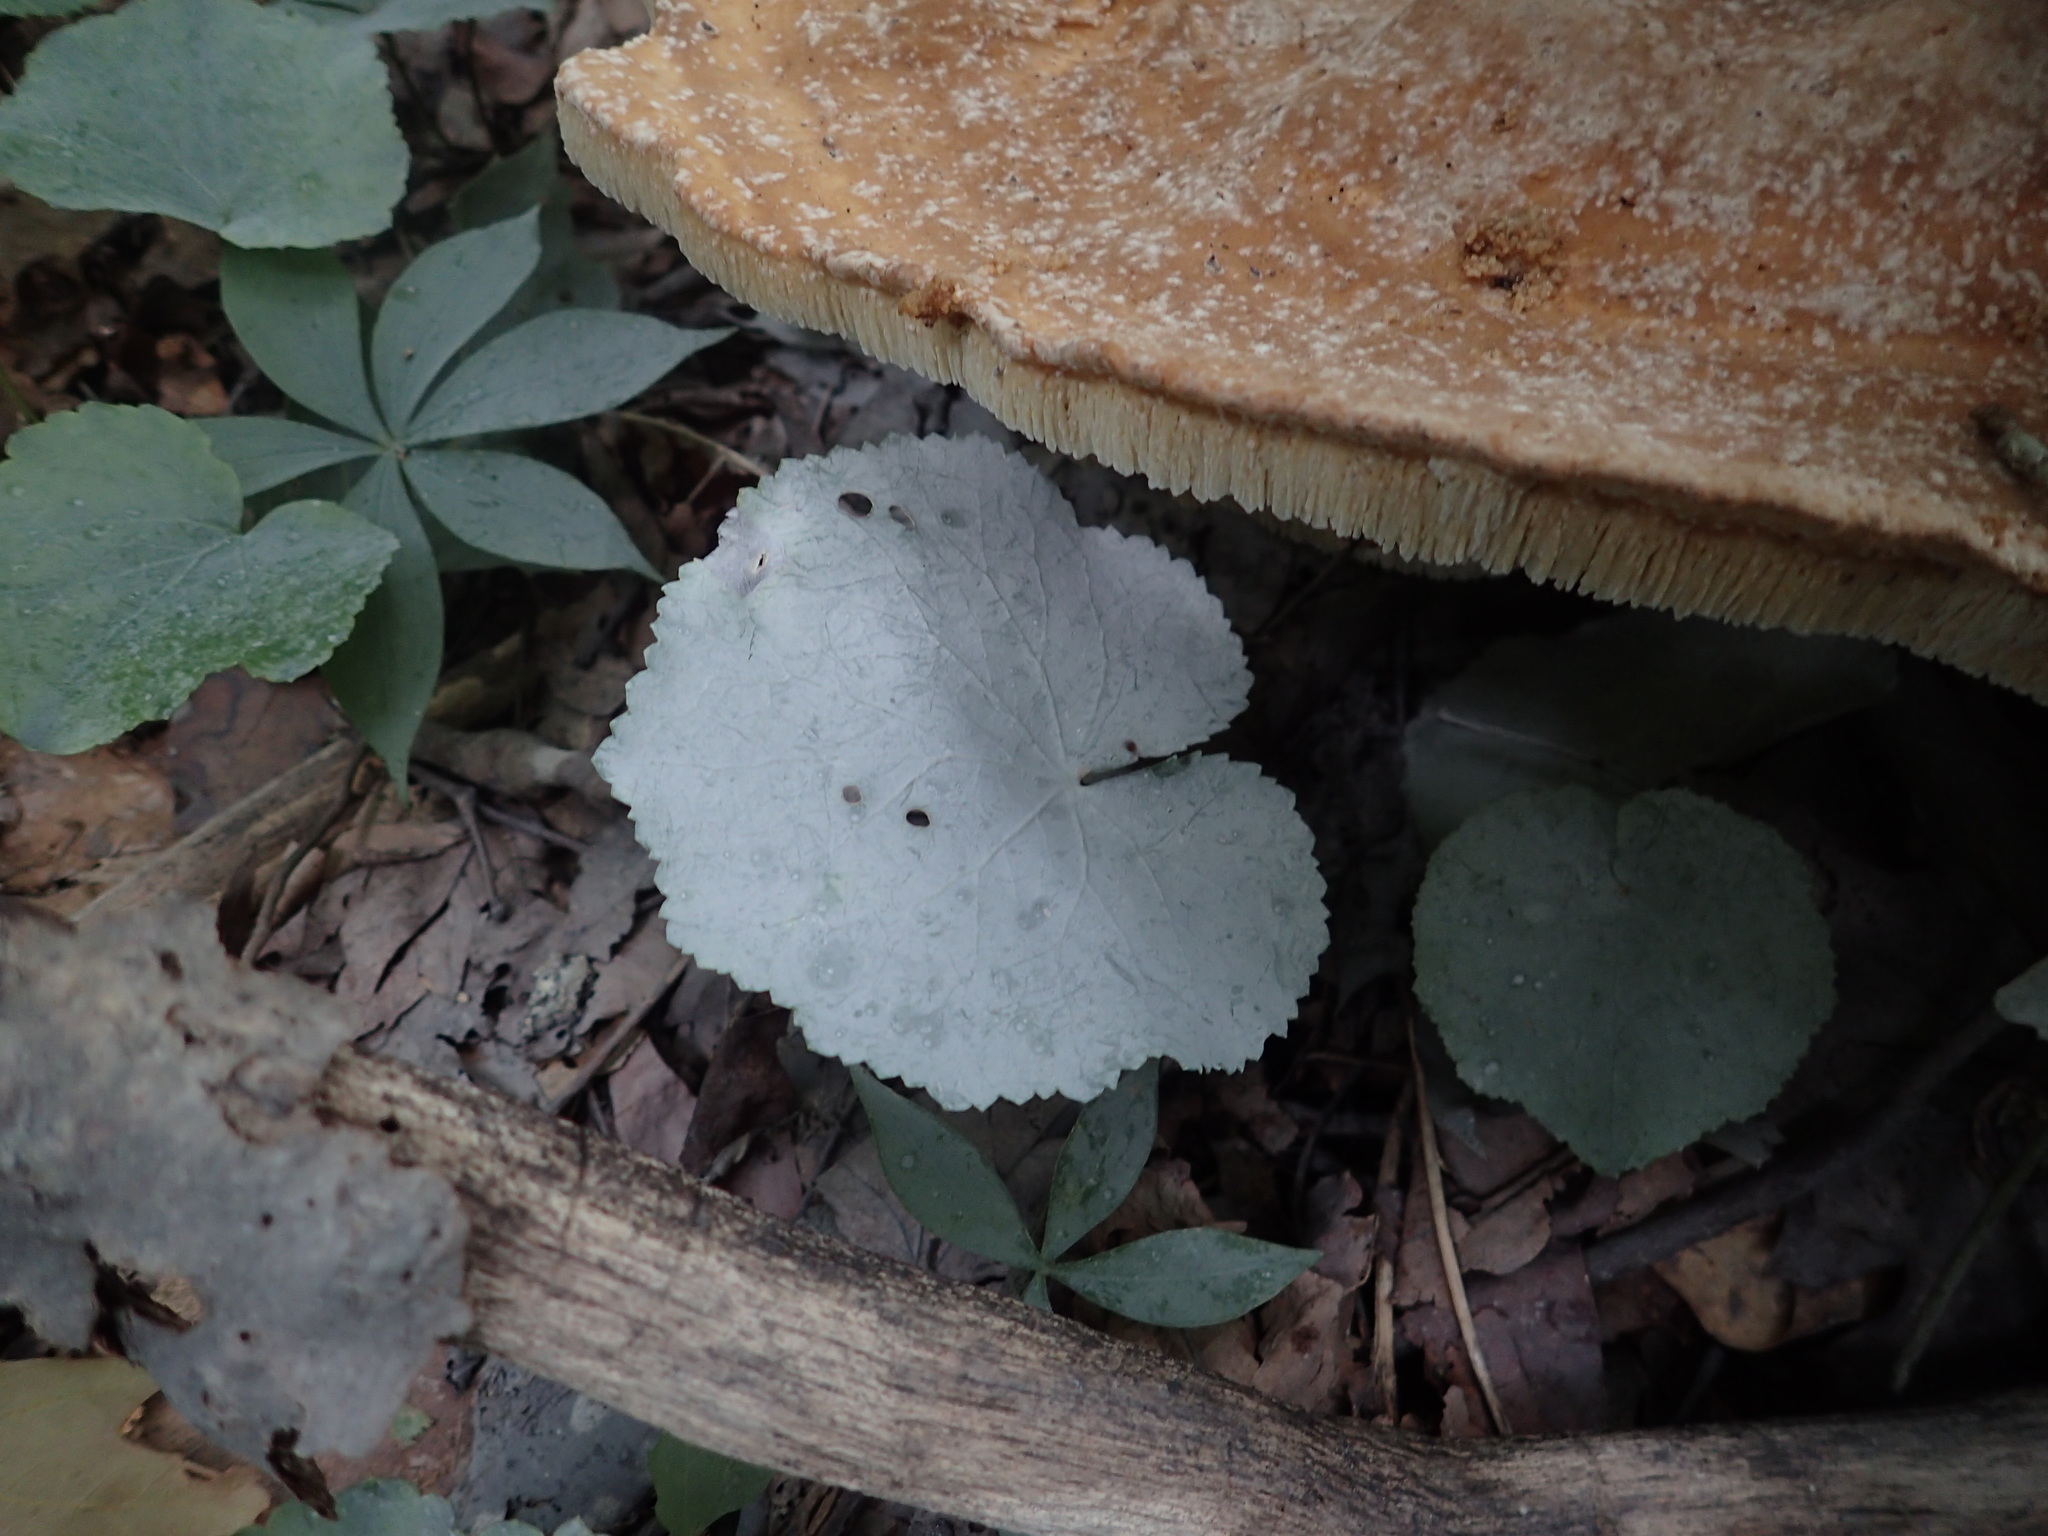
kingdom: Fungi
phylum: Basidiomycota
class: Agaricomycetes
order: Russulales
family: Bondarzewiaceae
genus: Bondarzewia
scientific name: Bondarzewia berkeleyi
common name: Berkeley's polypore
